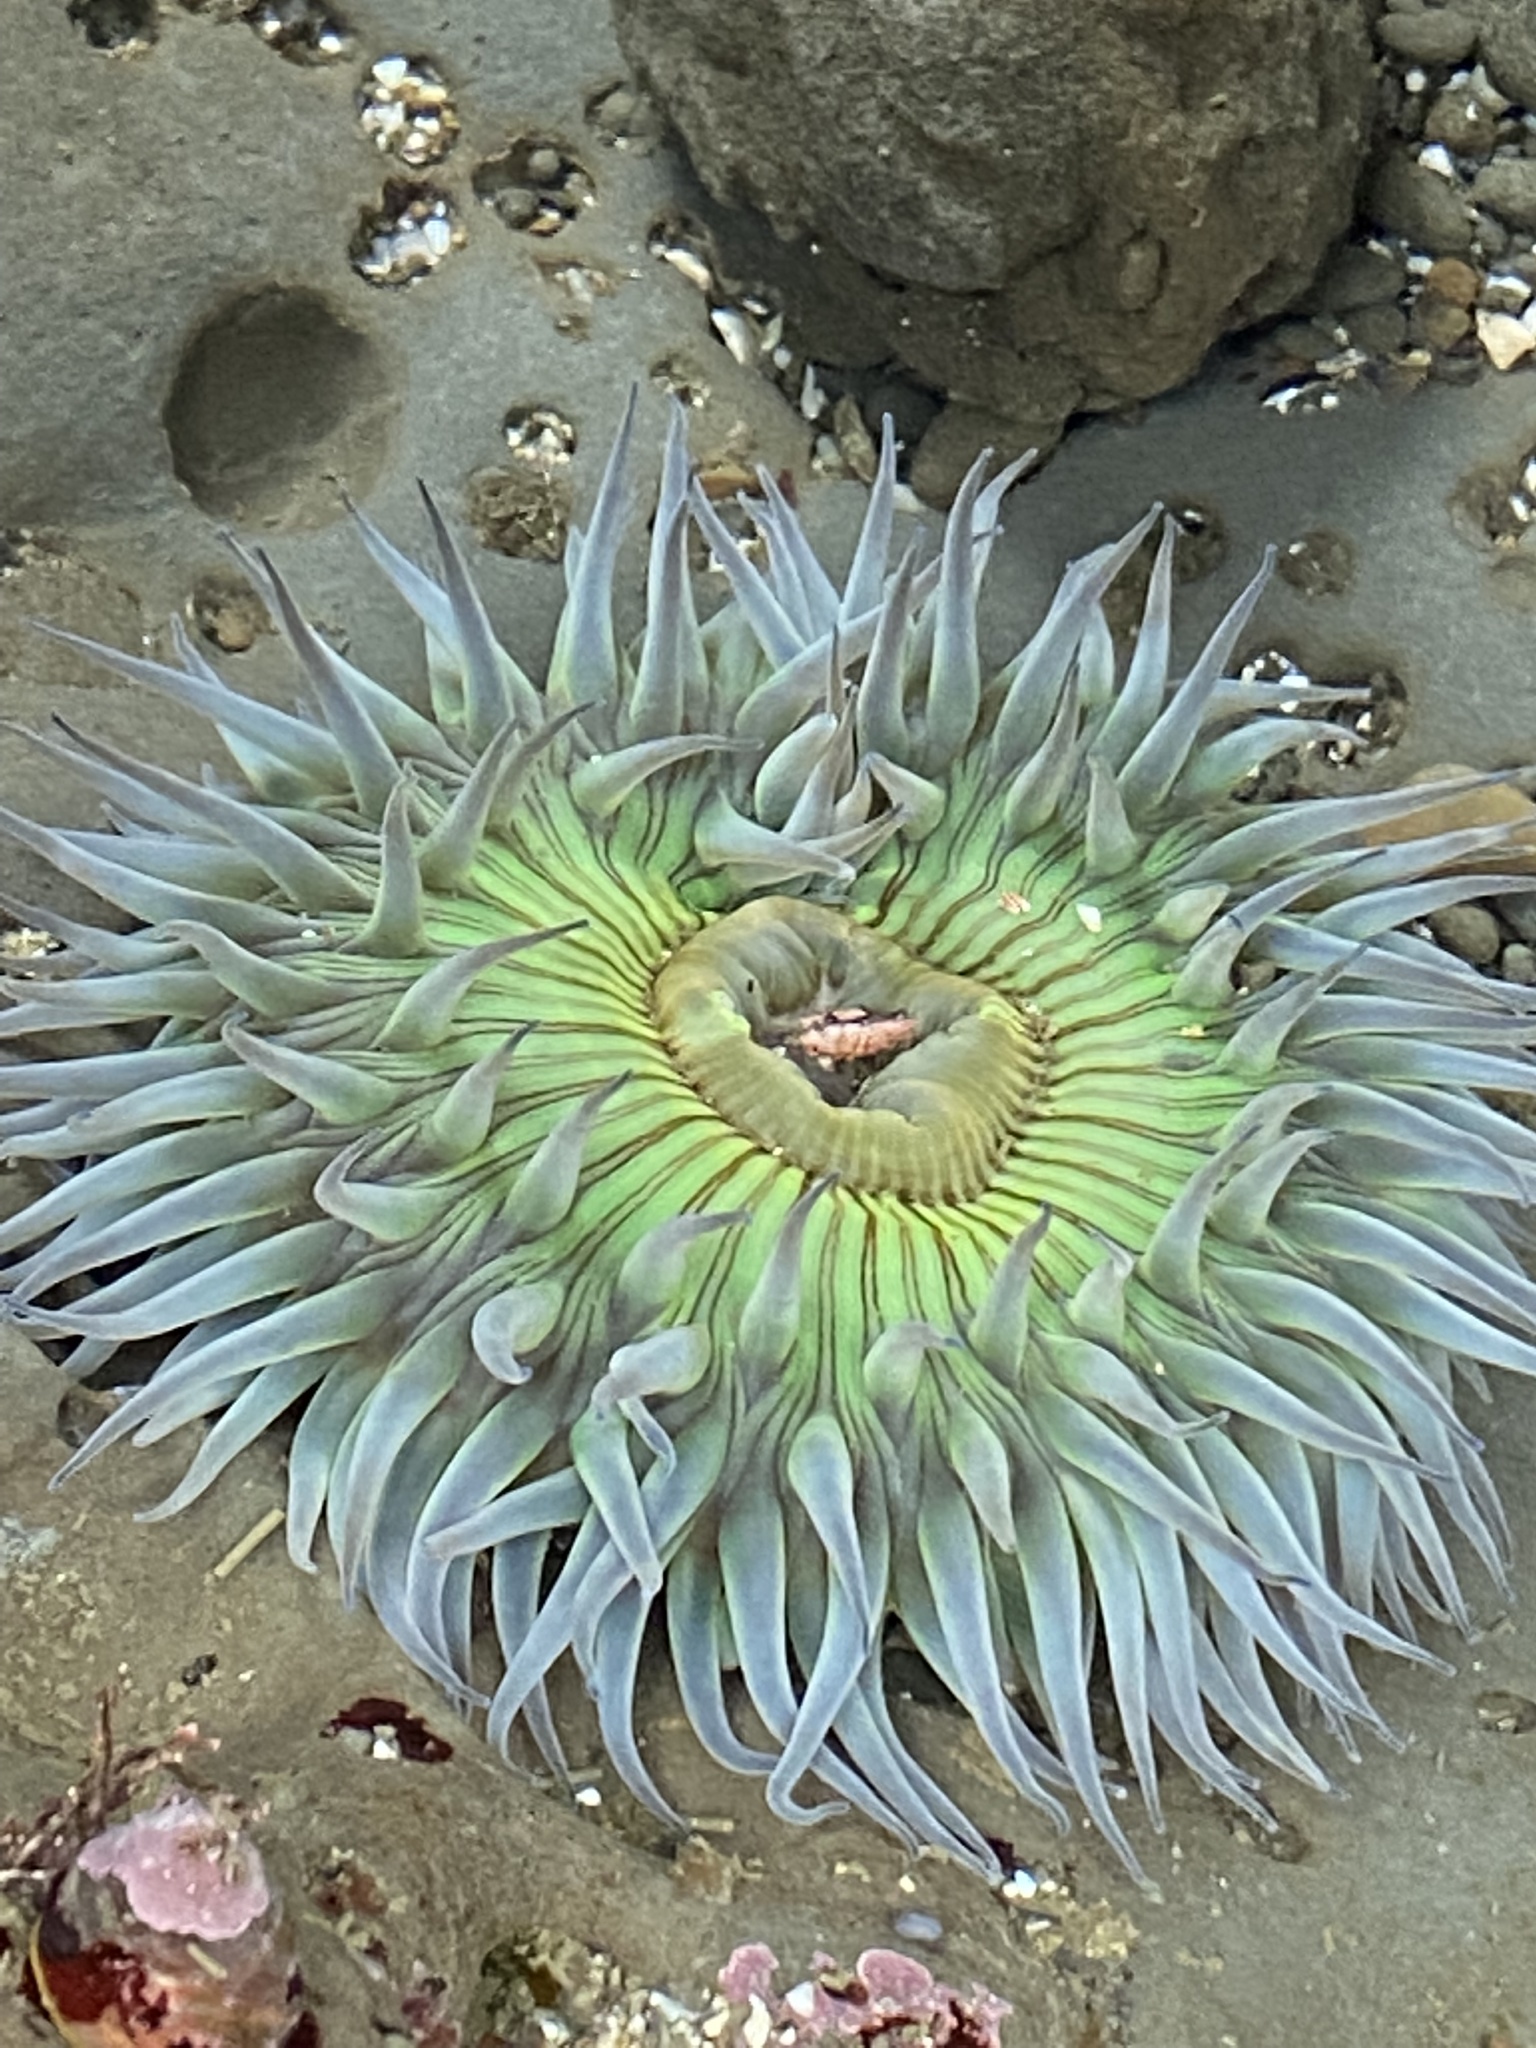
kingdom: Animalia
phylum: Cnidaria
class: Anthozoa
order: Actiniaria
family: Actiniidae
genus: Anthopleura
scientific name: Anthopleura sola
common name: Sun anemone
